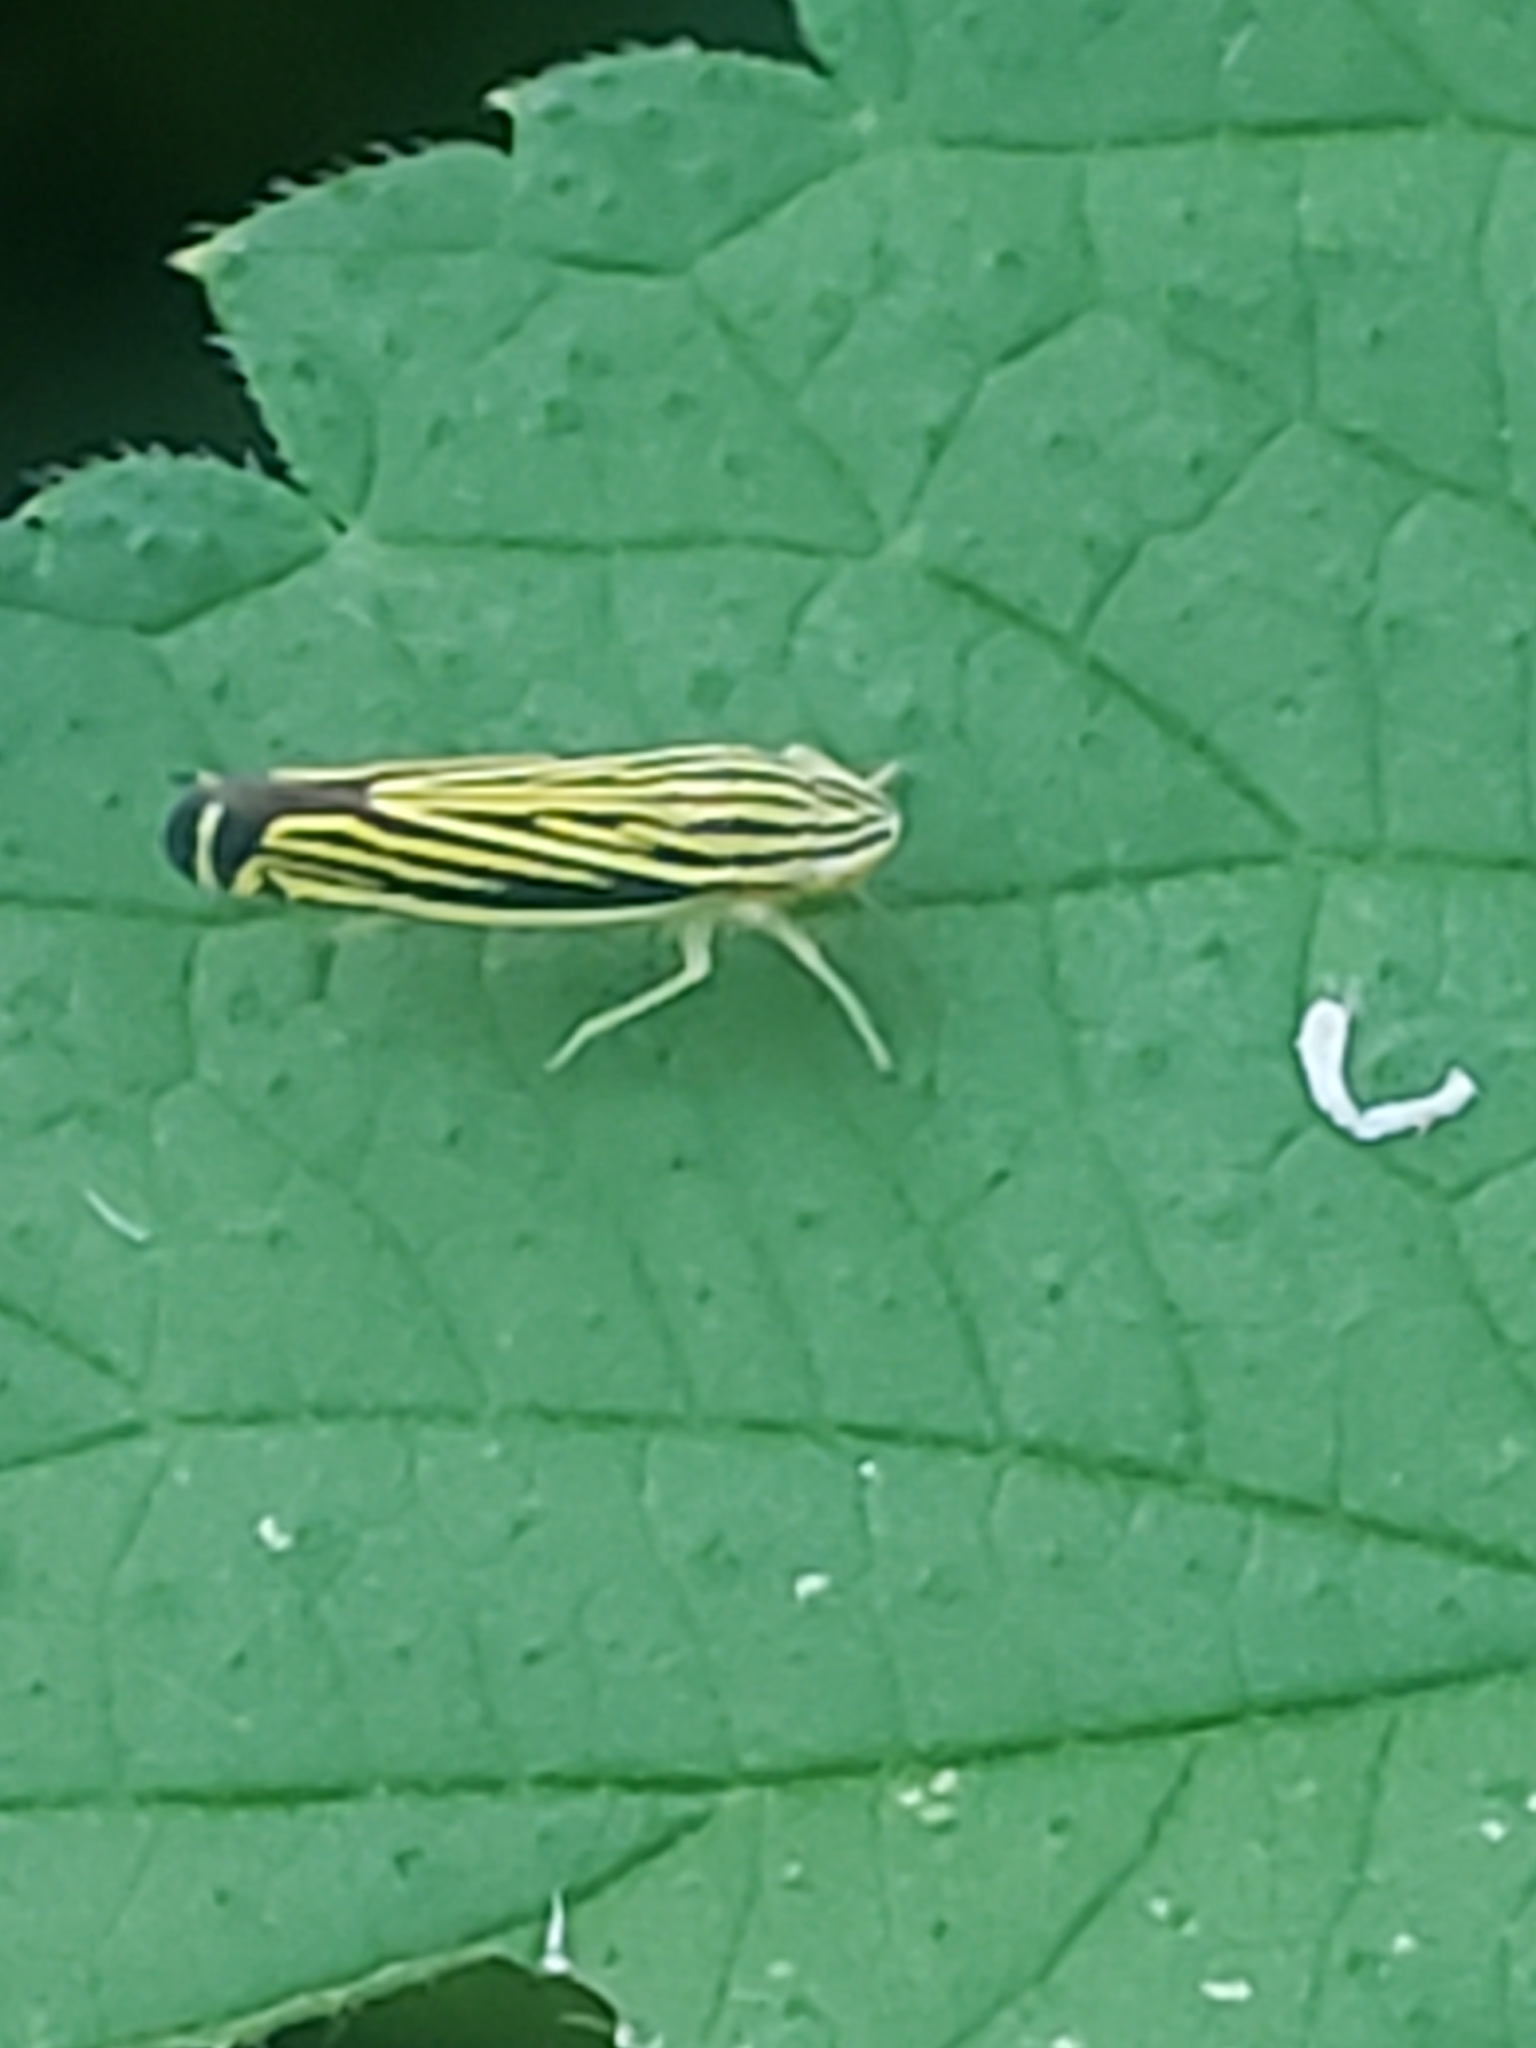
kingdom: Animalia
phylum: Arthropoda
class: Insecta
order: Hemiptera
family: Cicadellidae
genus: Sibovia
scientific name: Sibovia occatoria
